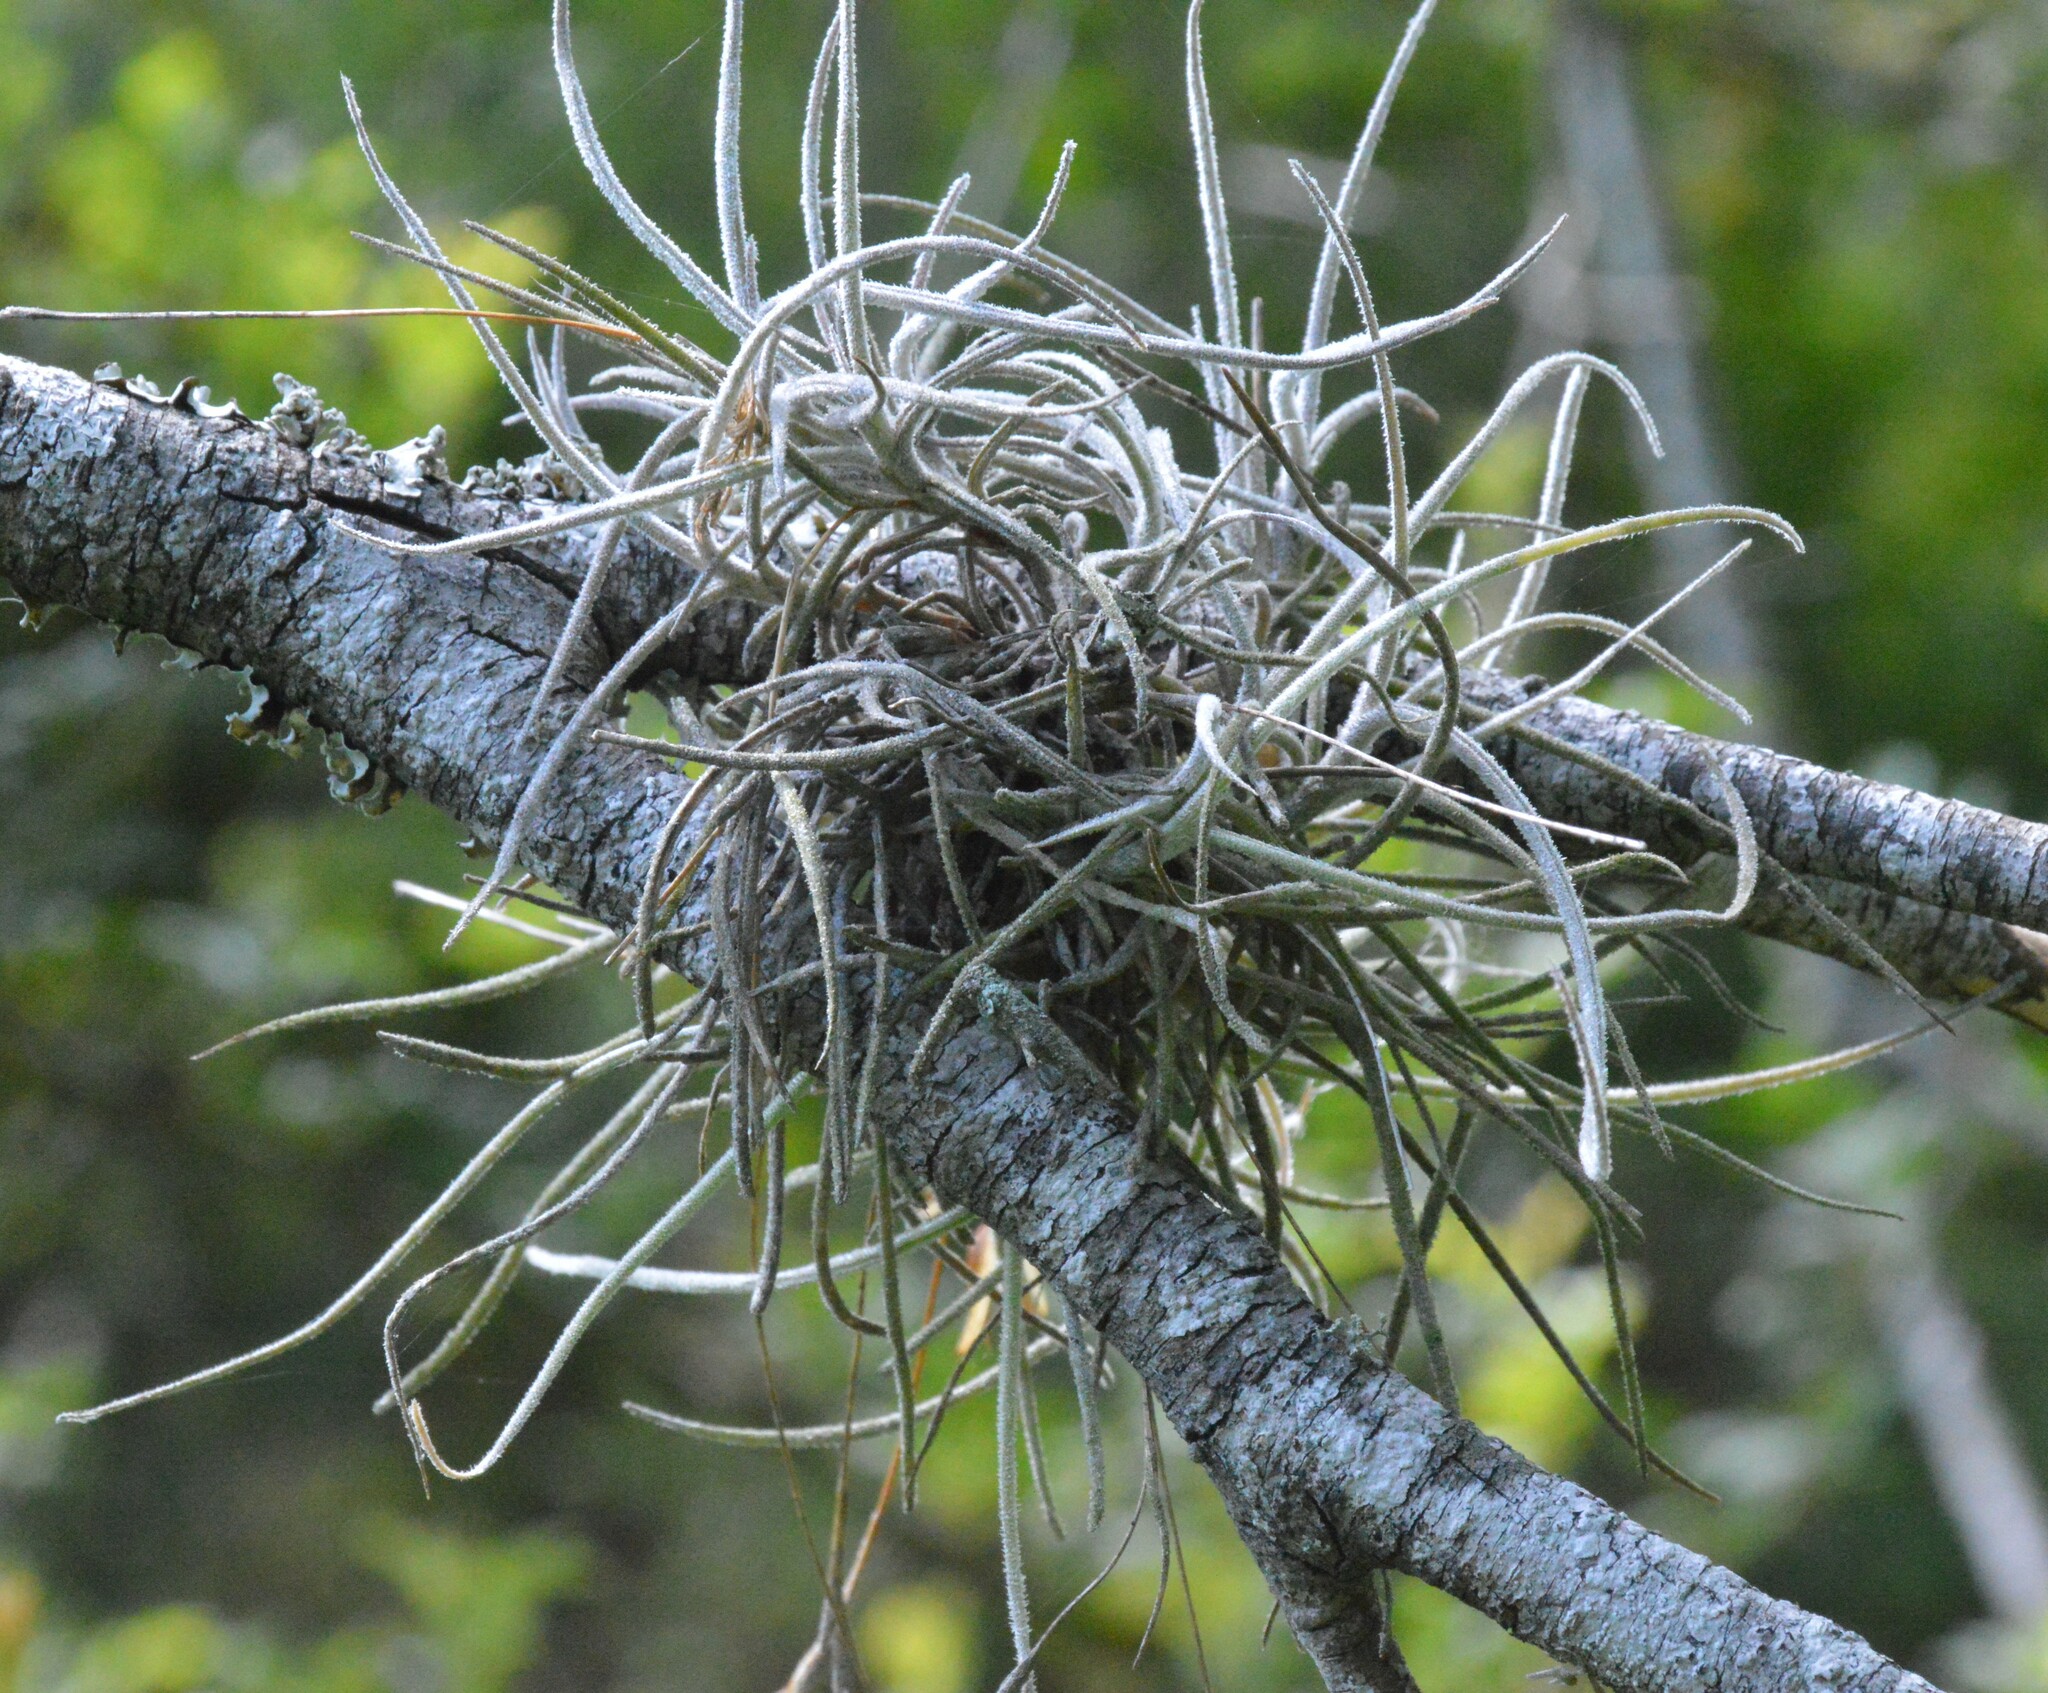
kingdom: Plantae
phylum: Tracheophyta
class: Liliopsida
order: Poales
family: Bromeliaceae
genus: Tillandsia
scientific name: Tillandsia recurvata
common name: Small ballmoss
